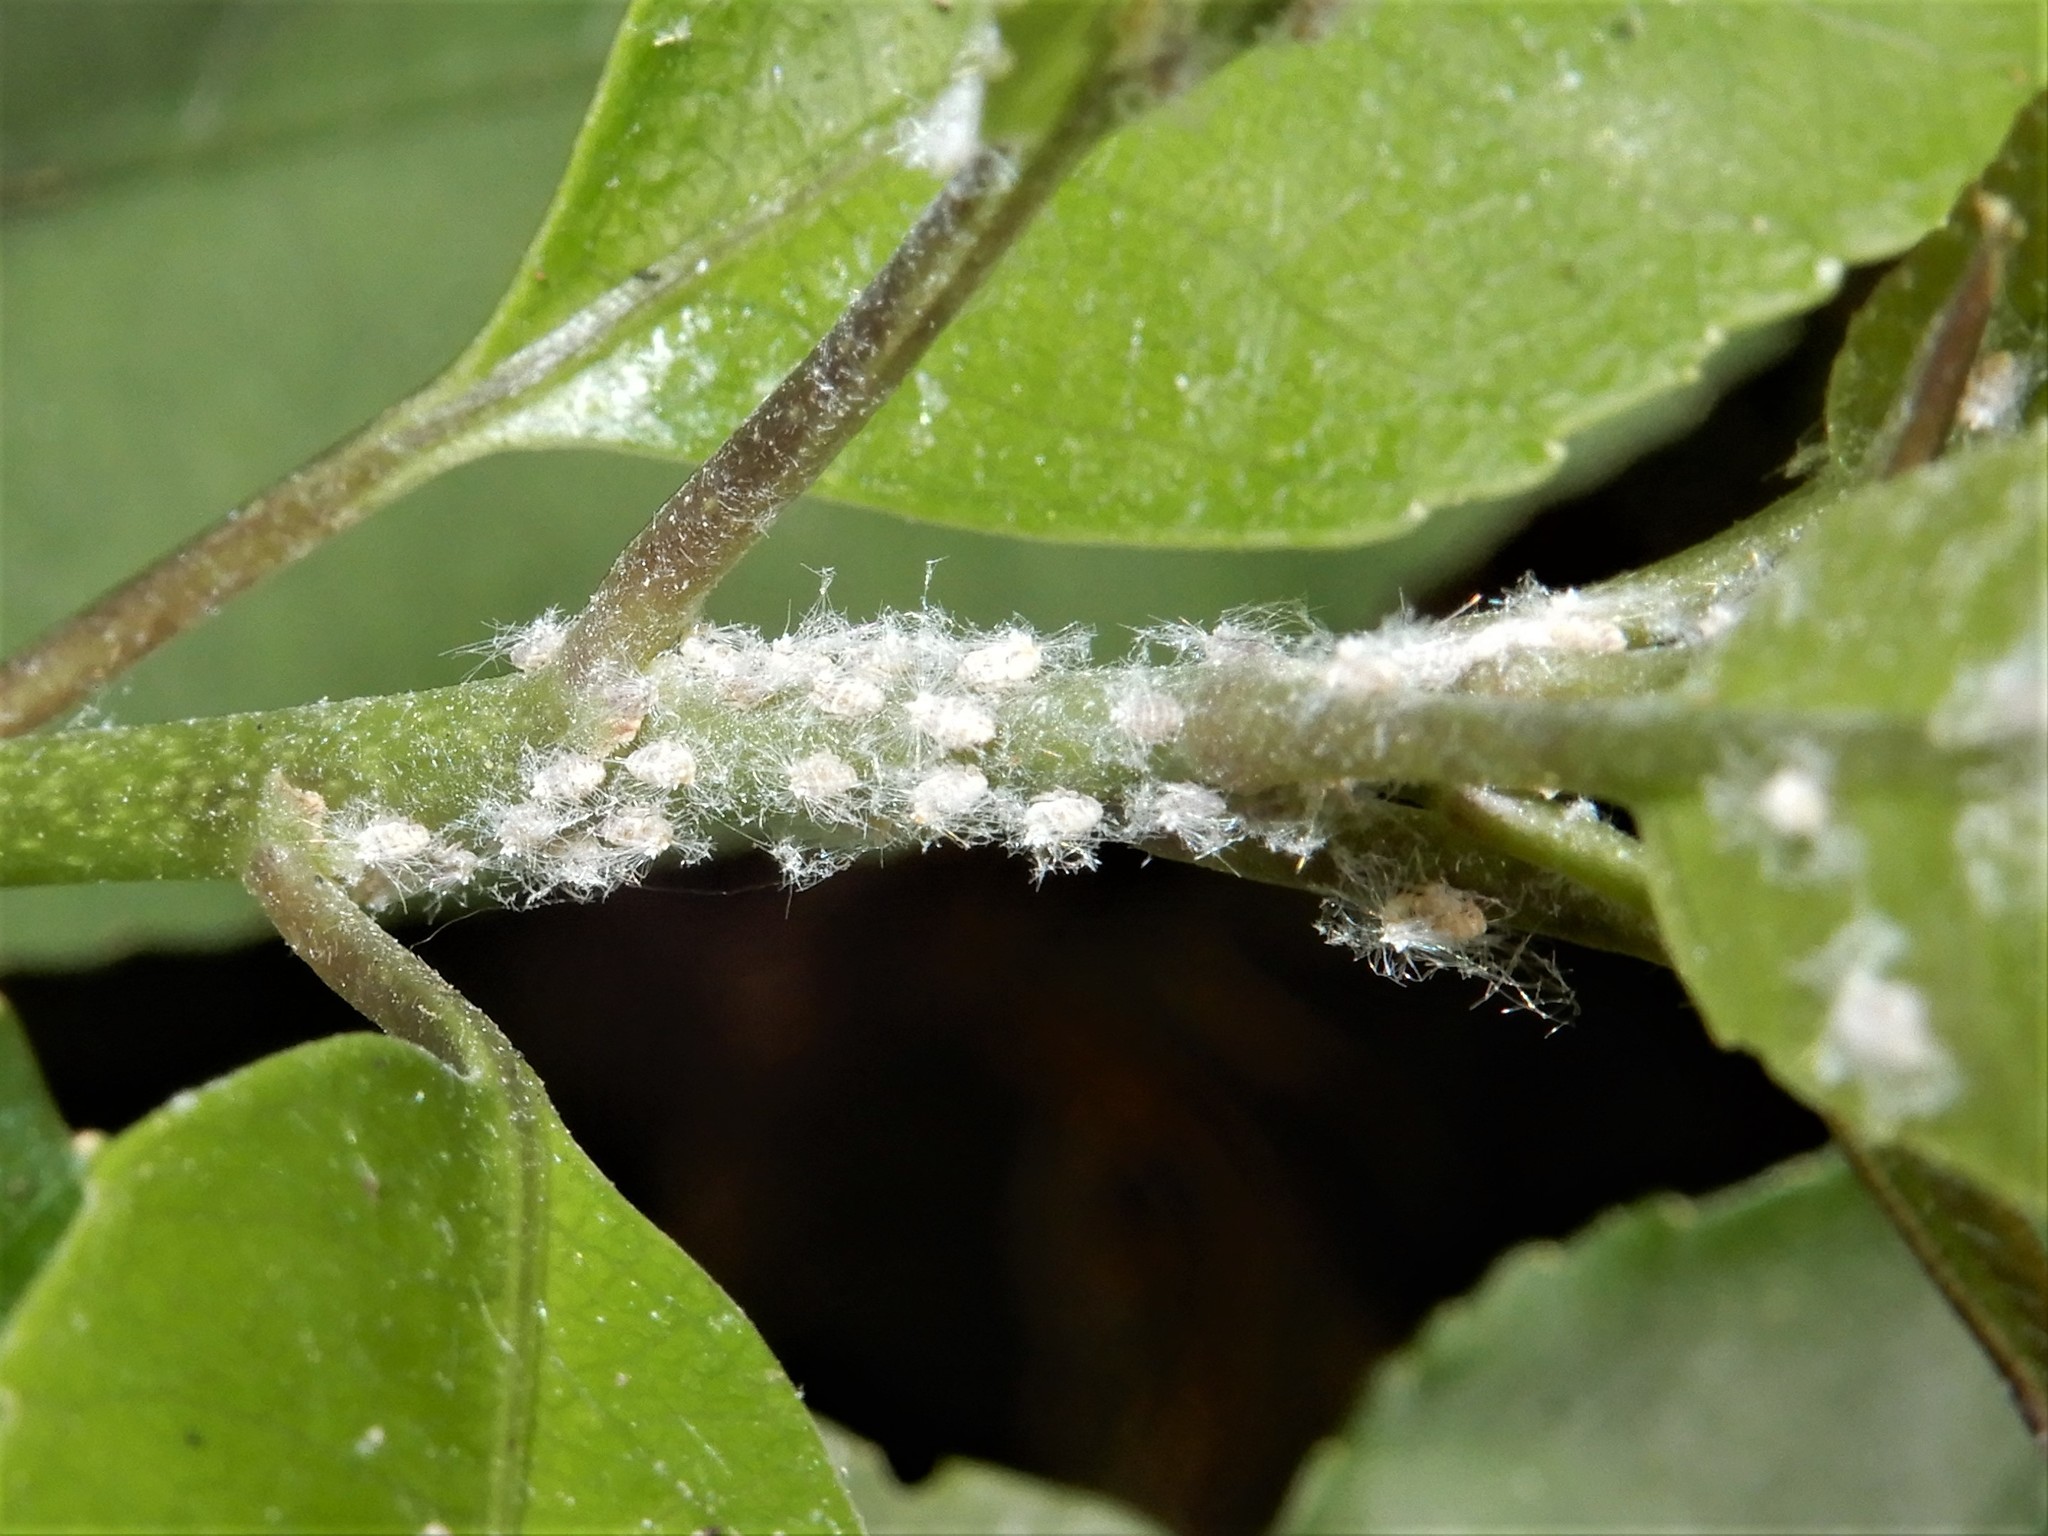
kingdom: Animalia
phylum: Arthropoda
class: Insecta
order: Hemiptera
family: Ricaniidae
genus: Scolypopa
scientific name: Scolypopa australis
